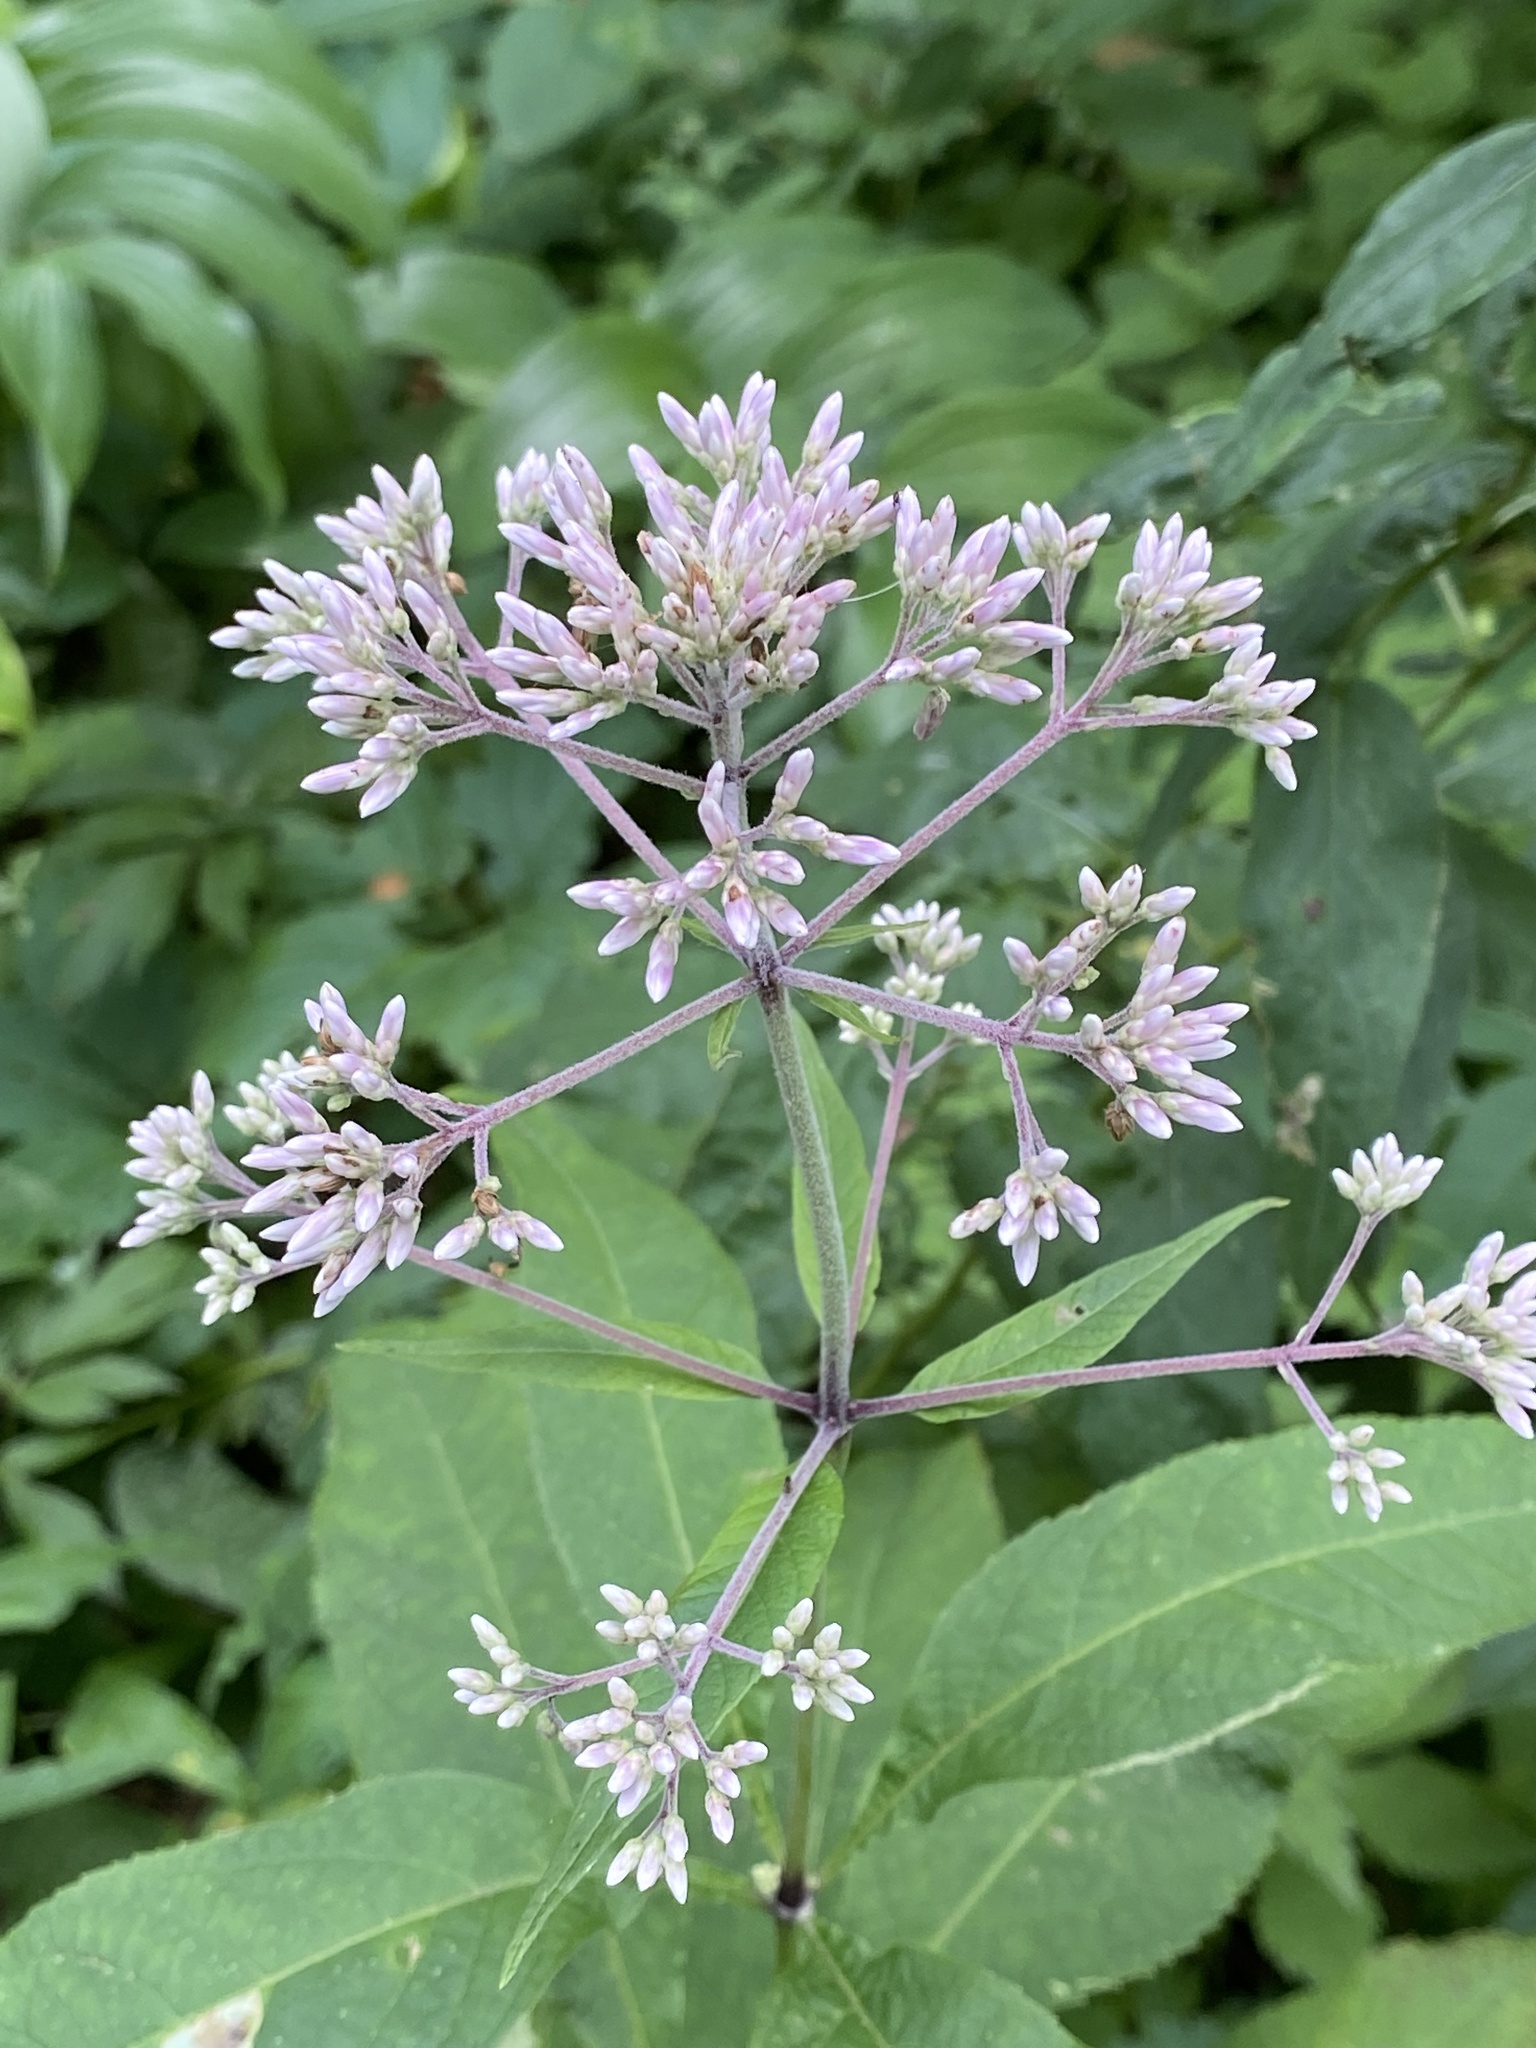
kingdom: Plantae
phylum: Tracheophyta
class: Magnoliopsida
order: Asterales
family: Asteraceae
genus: Eutrochium
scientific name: Eutrochium purpureum
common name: Gravelroot
